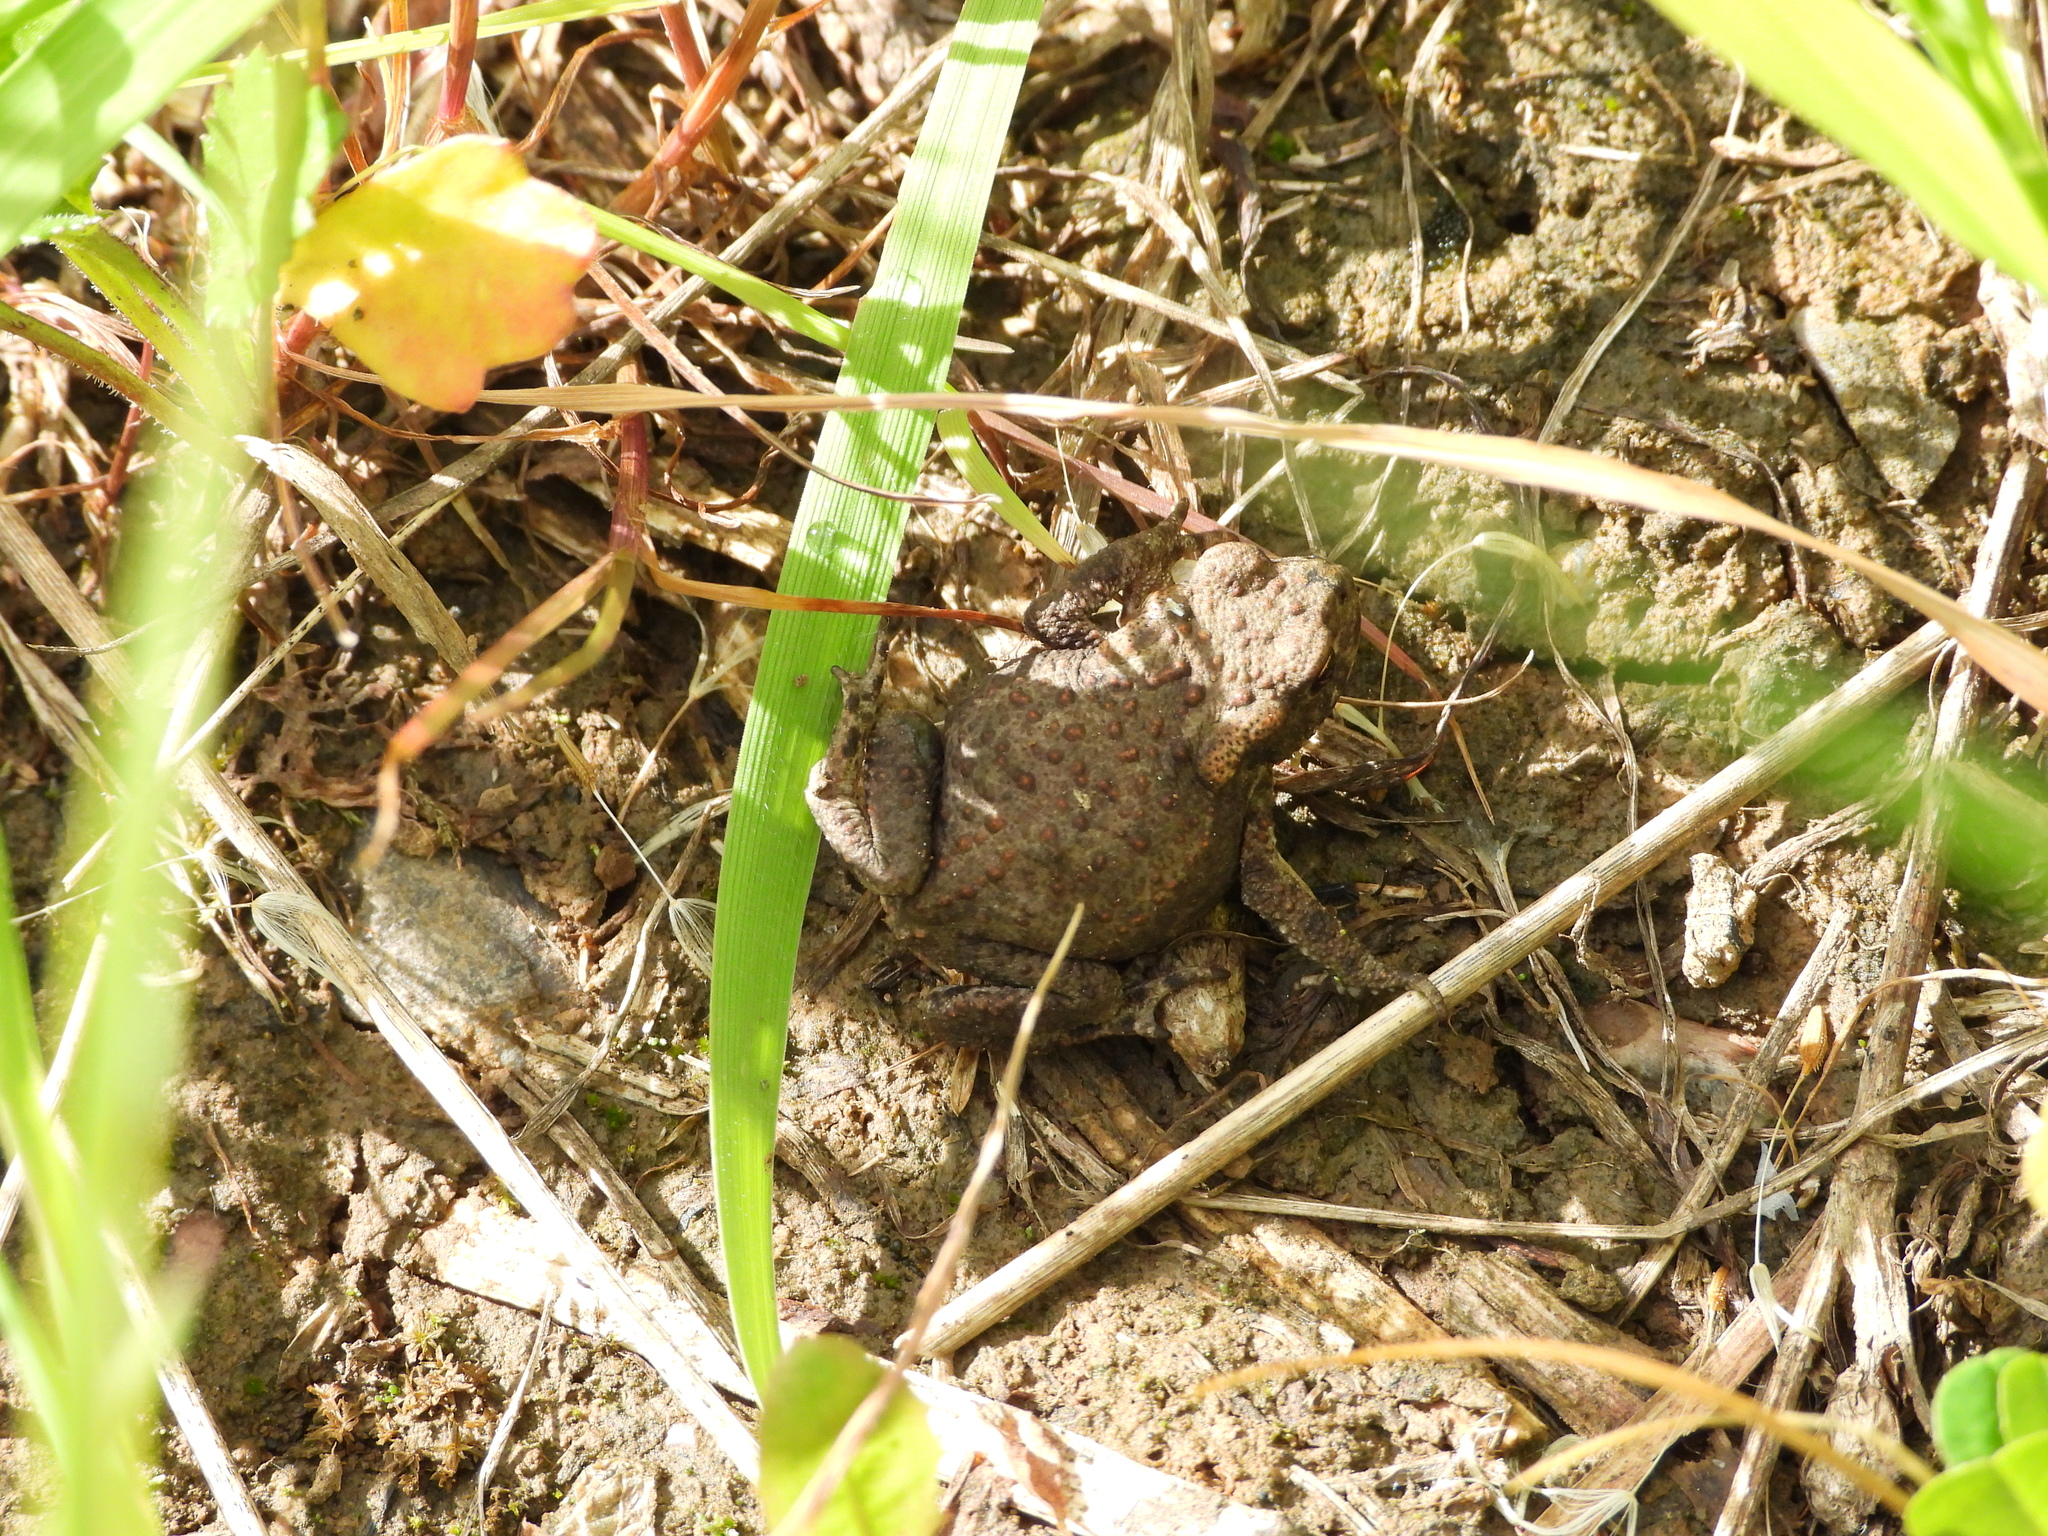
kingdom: Animalia
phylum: Chordata
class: Amphibia
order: Anura
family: Bufonidae
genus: Bufo
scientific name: Bufo bufo
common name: Common toad
